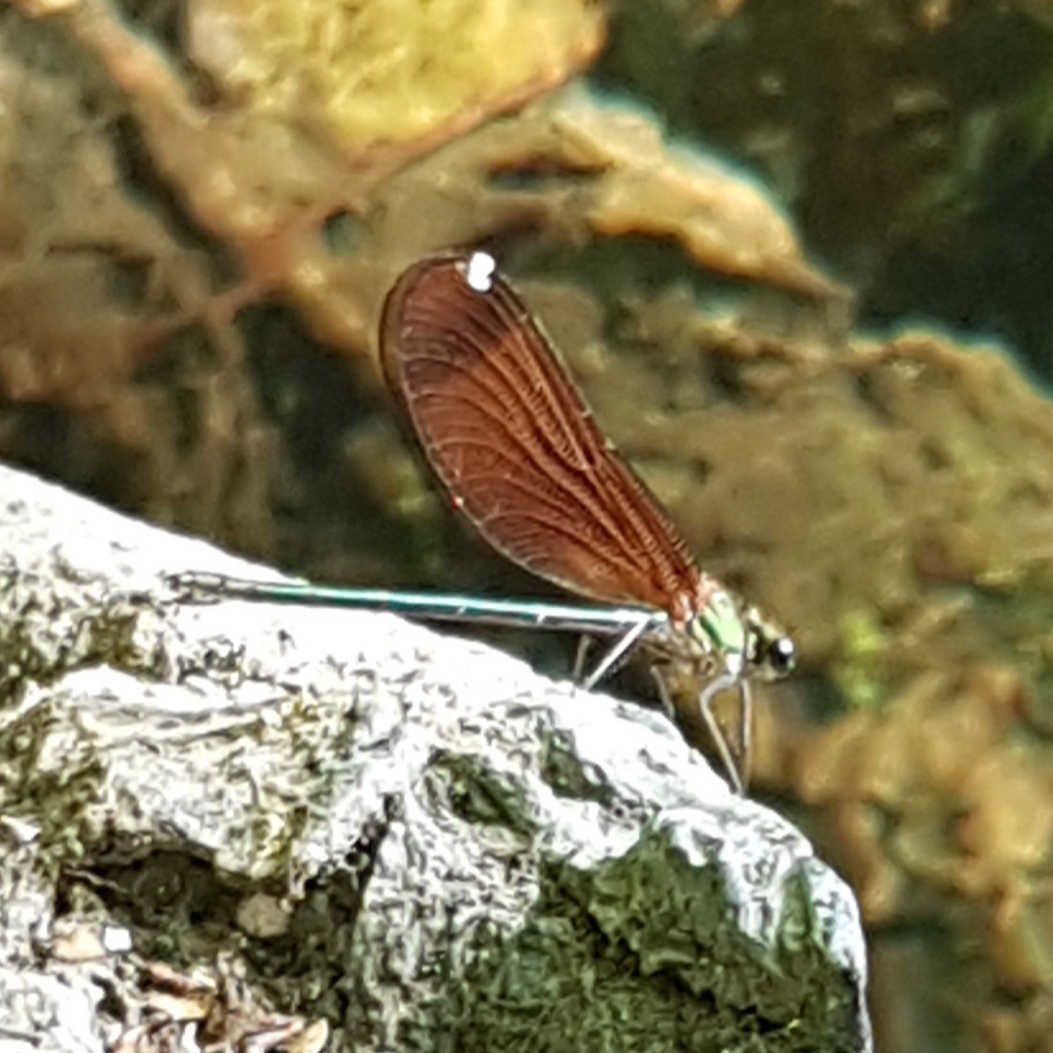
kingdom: Animalia
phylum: Arthropoda
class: Insecta
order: Odonata
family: Calopterygidae
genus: Calopteryx
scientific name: Calopteryx haemorrhoidalis
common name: Copper demoiselle
